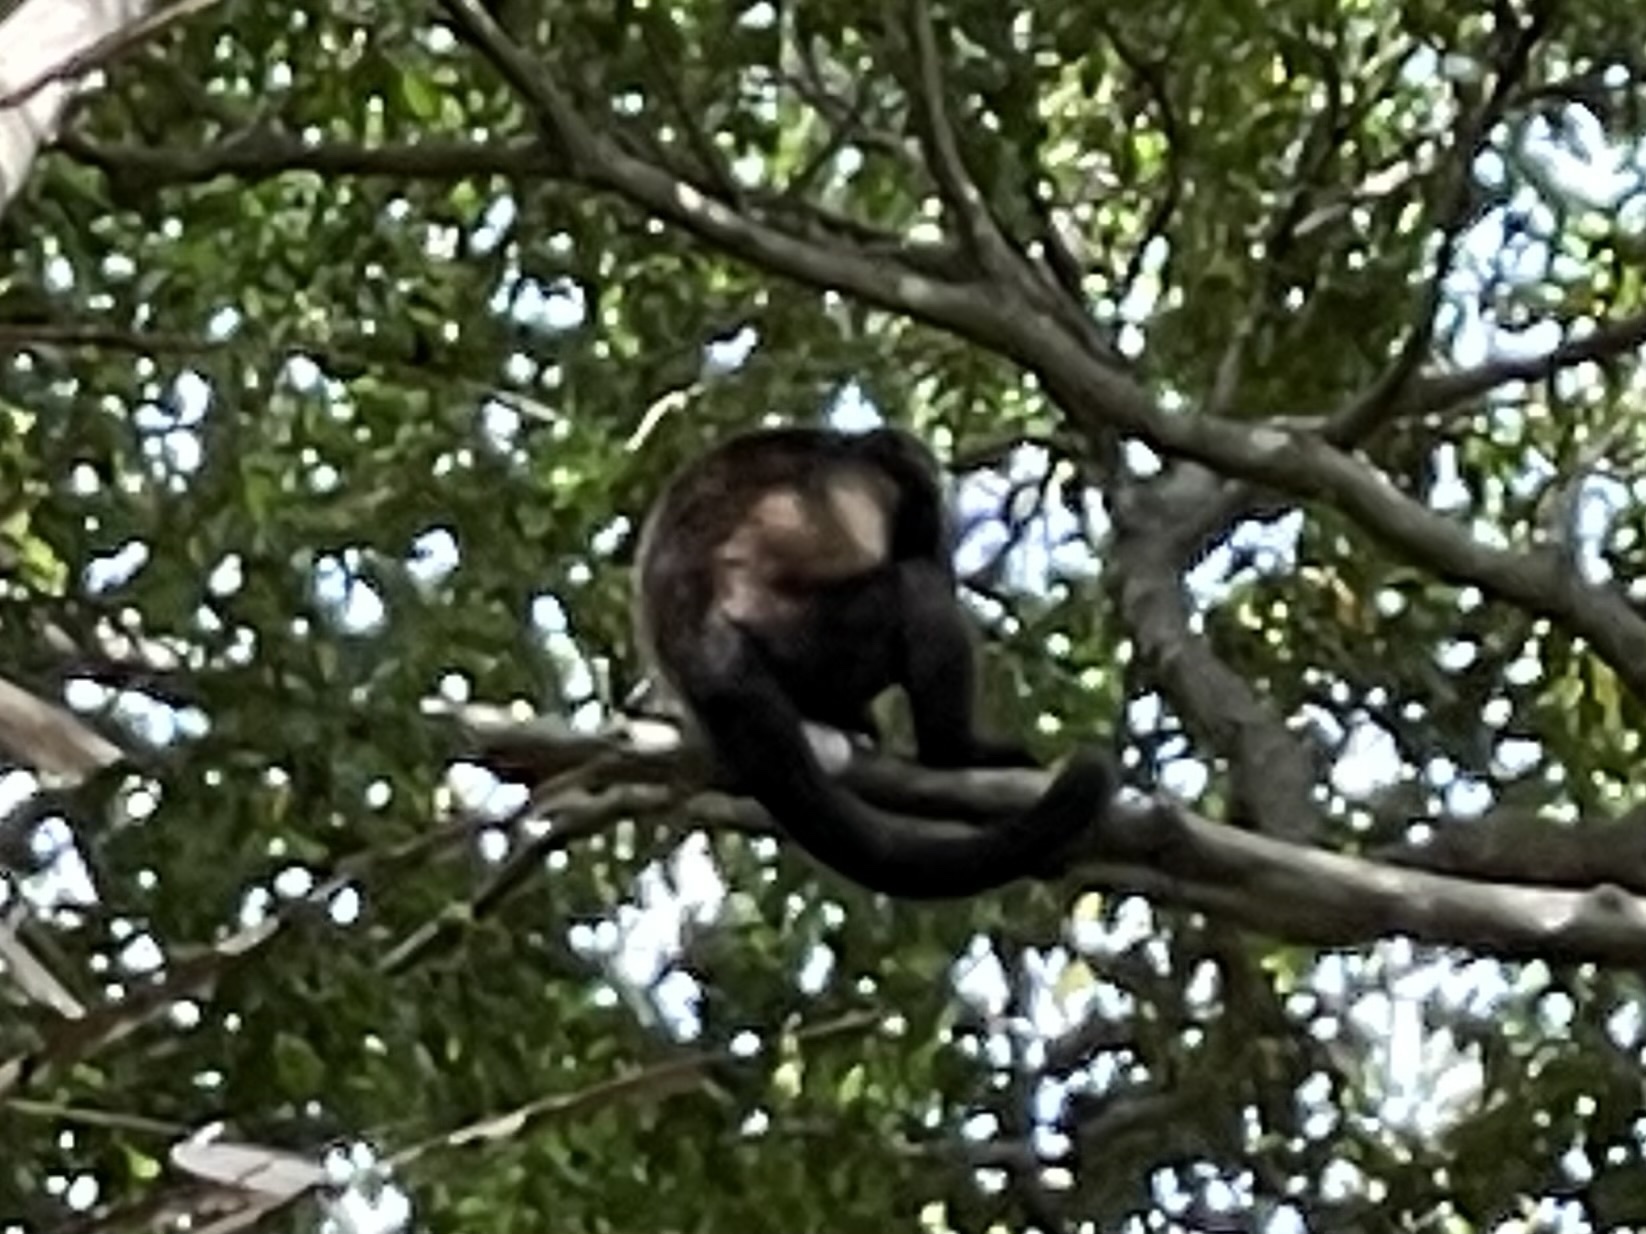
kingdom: Animalia
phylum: Chordata
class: Mammalia
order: Primates
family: Atelidae
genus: Alouatta
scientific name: Alouatta palliata
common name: Mantled howler
